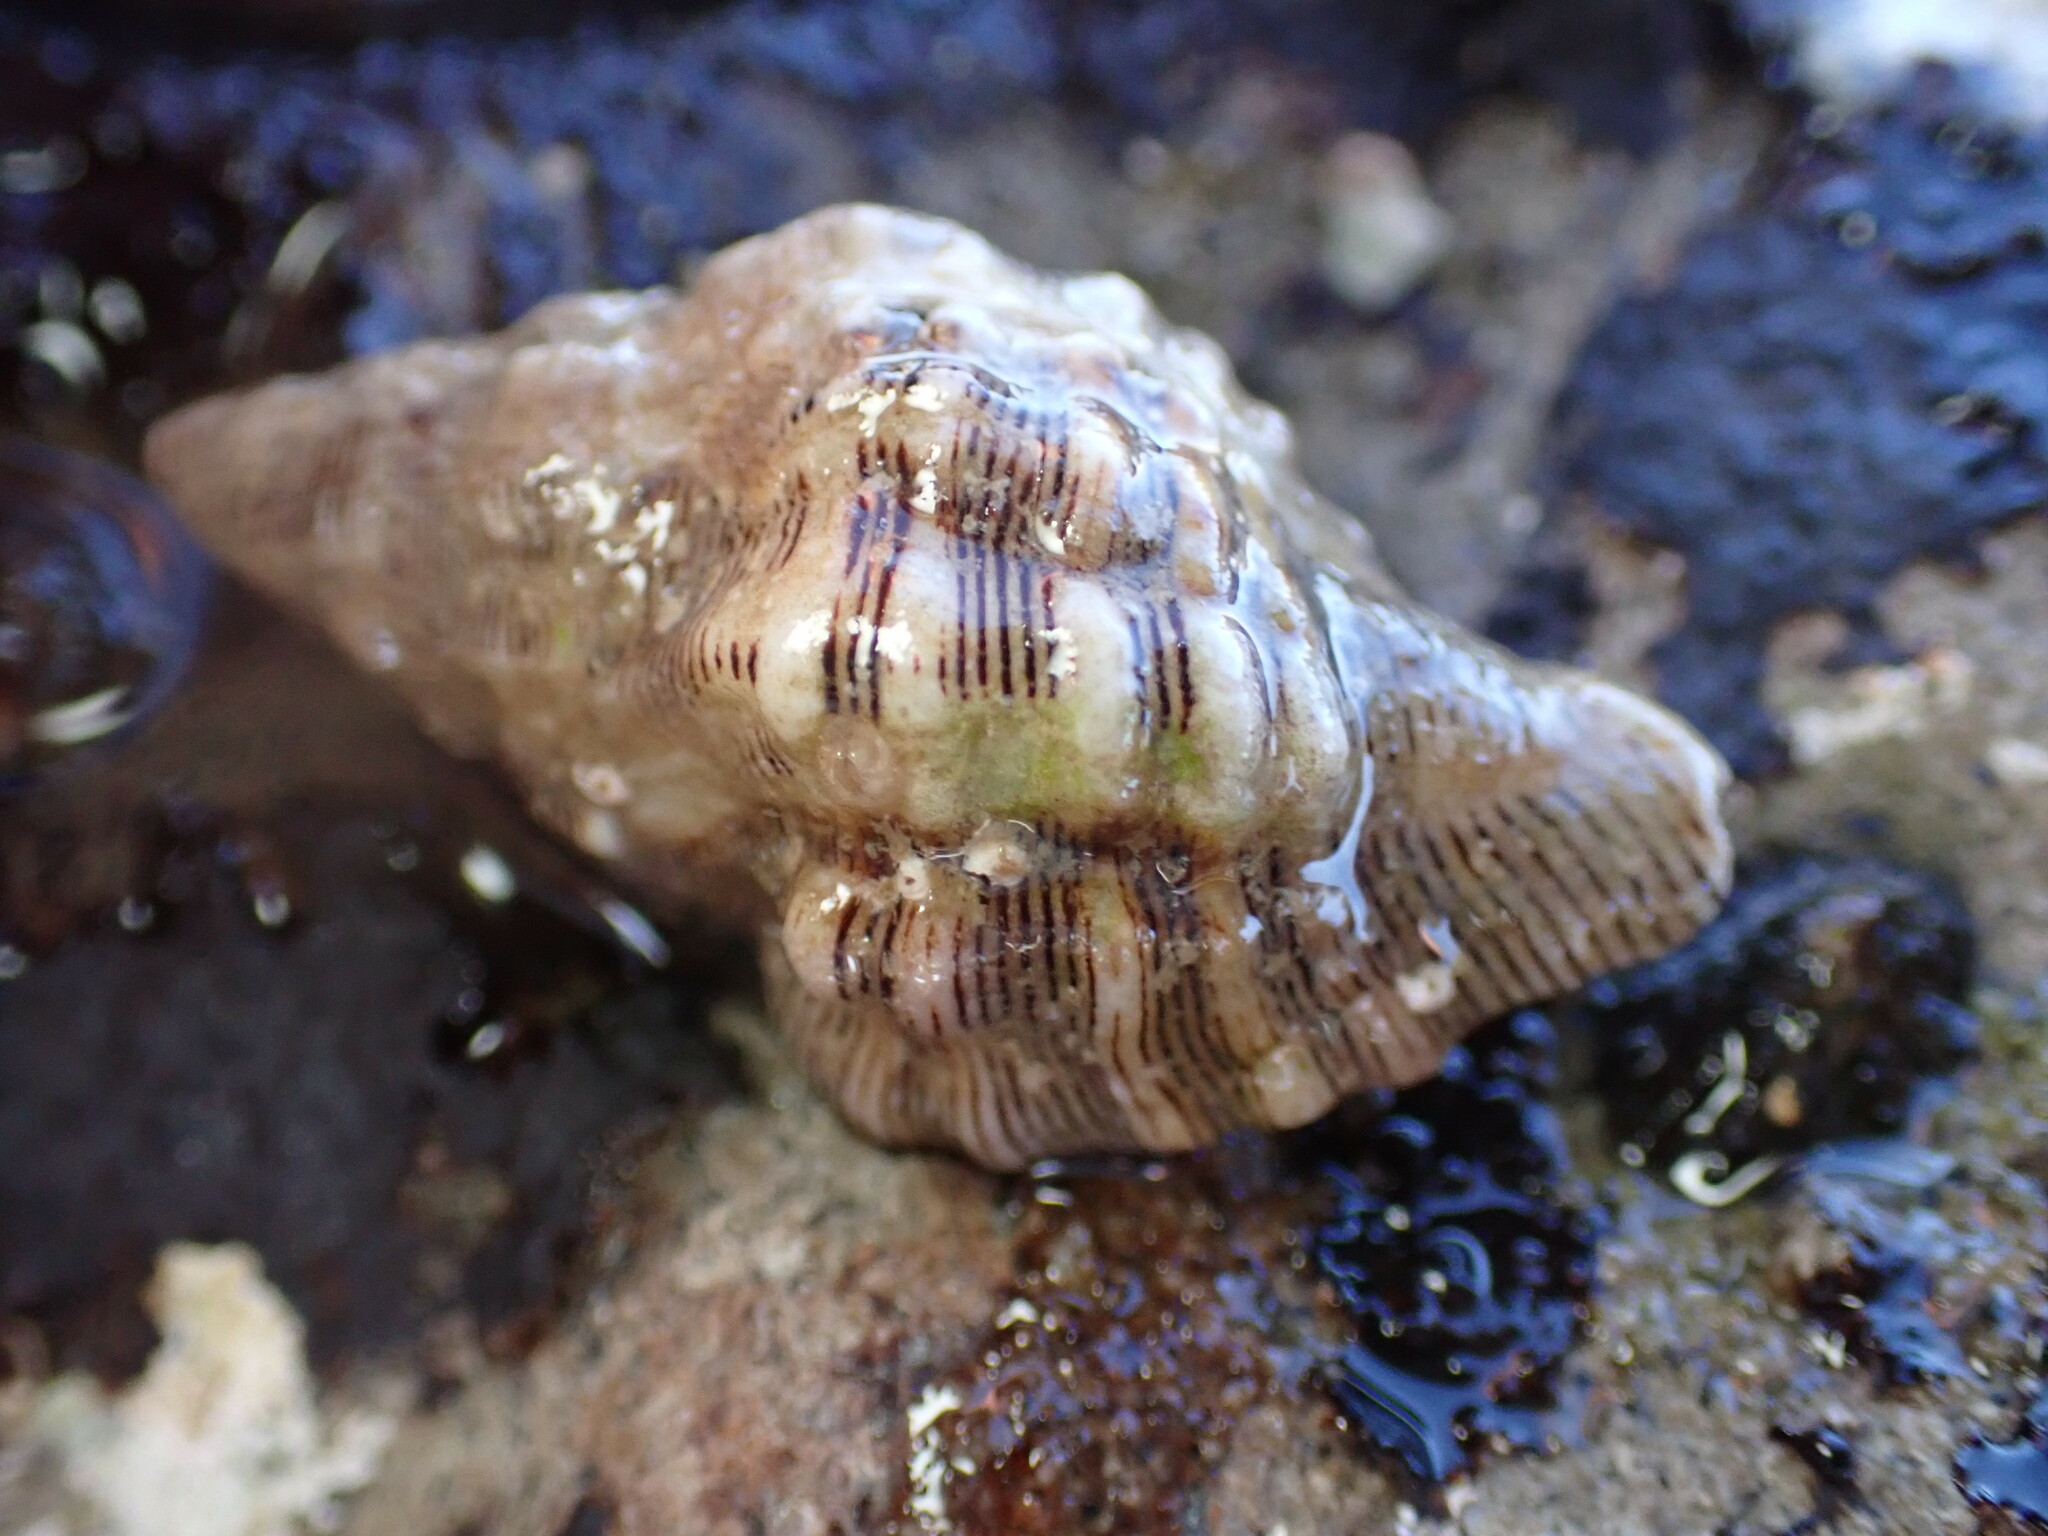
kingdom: Animalia
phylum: Mollusca
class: Gastropoda
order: Neogastropoda
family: Muricidae
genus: Roperia
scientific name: Roperia poulsoni
